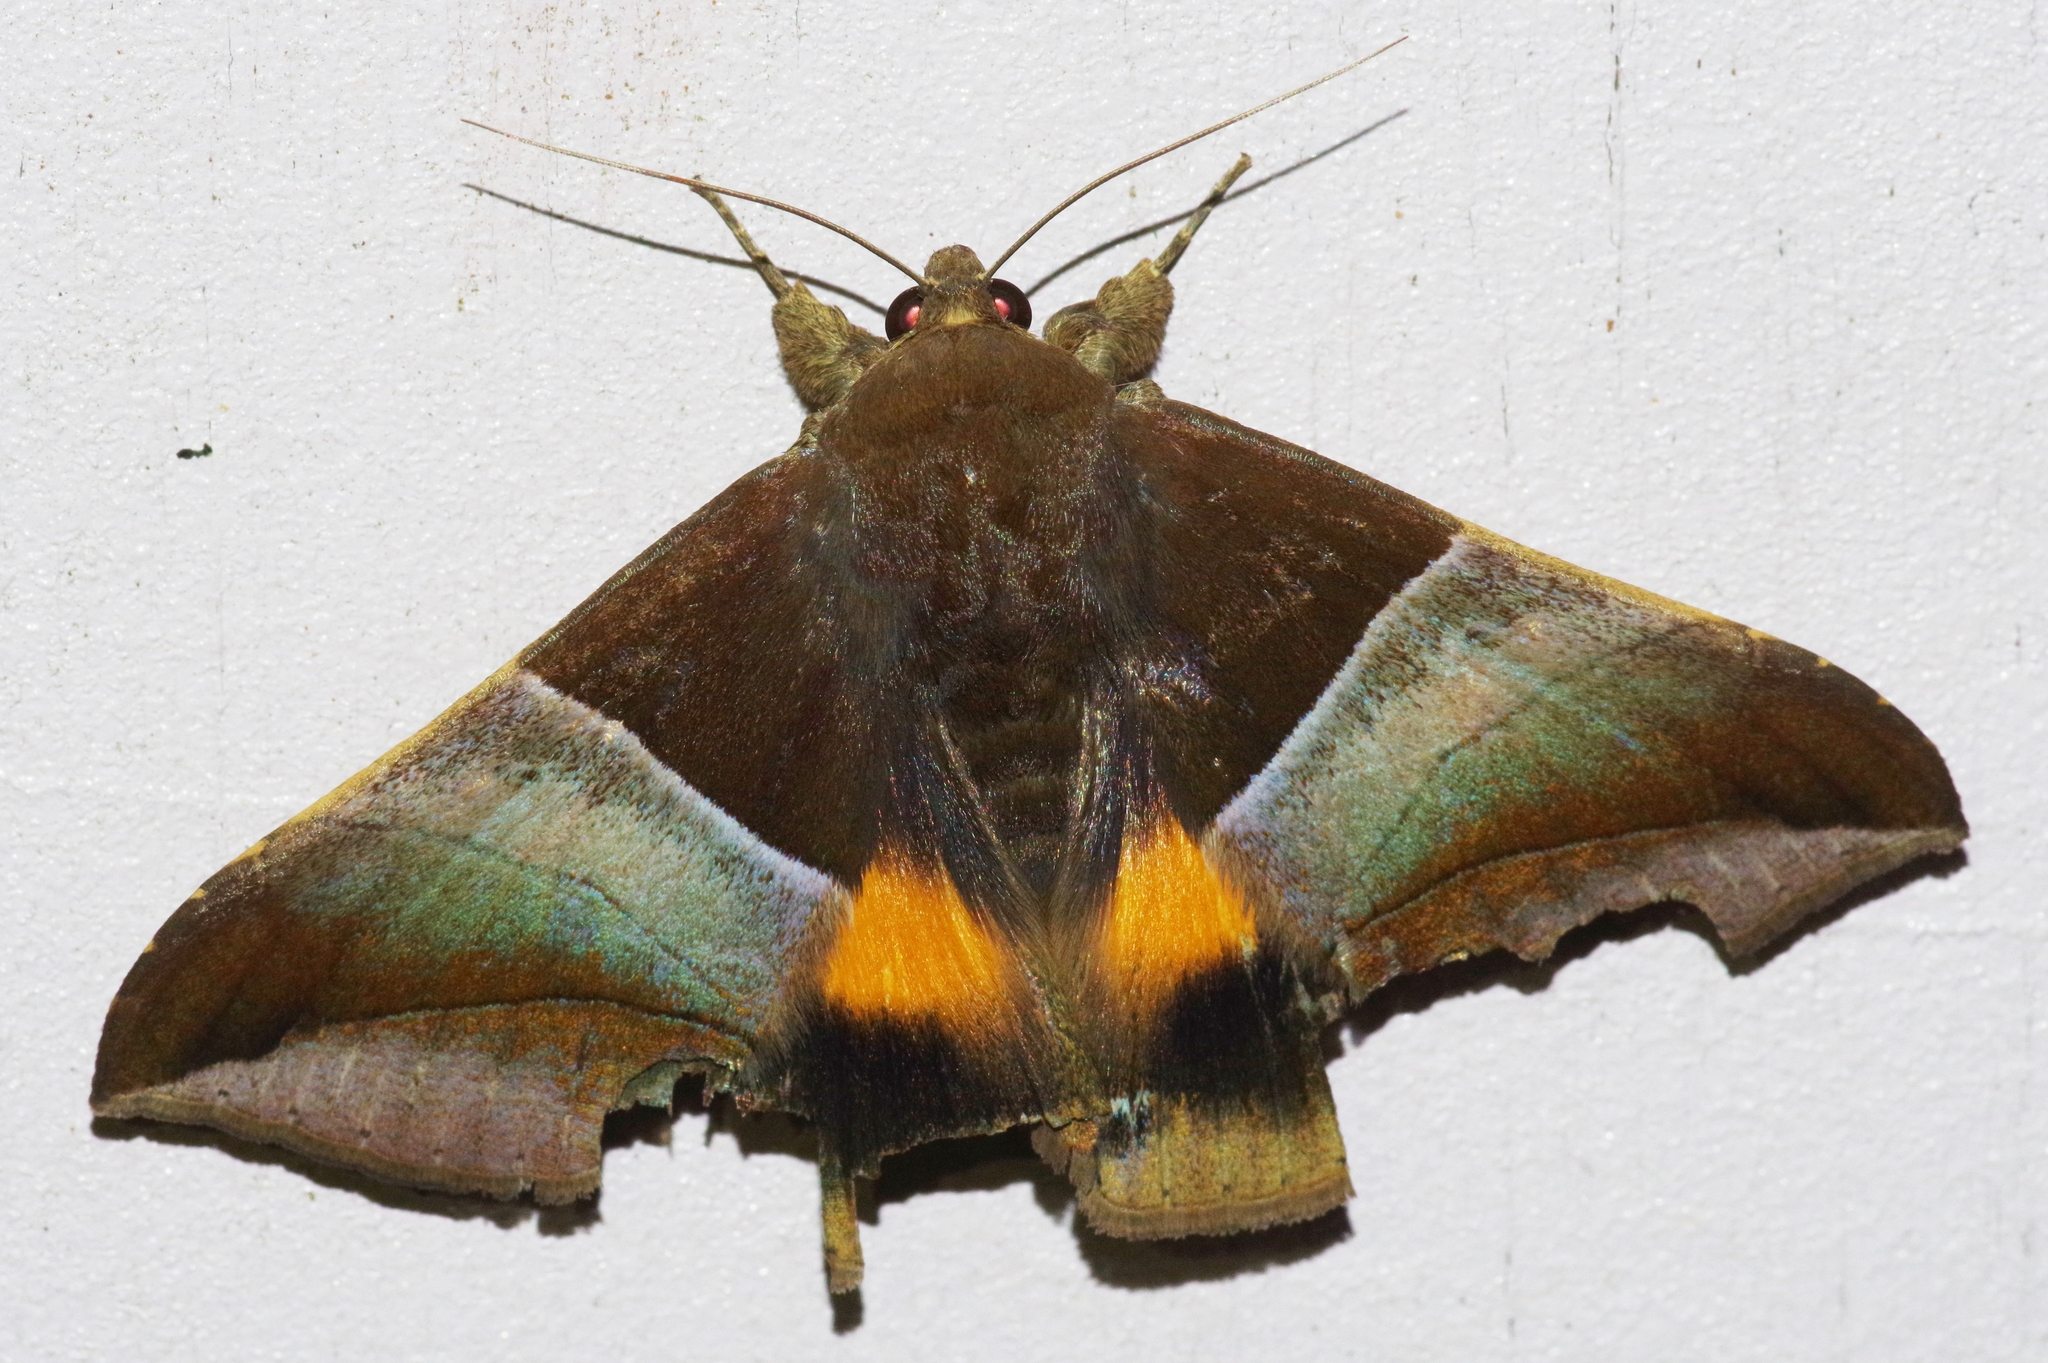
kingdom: Animalia
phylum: Arthropoda
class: Insecta
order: Lepidoptera
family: Erebidae
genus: Bastilla
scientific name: Bastilla fulvotaenia
